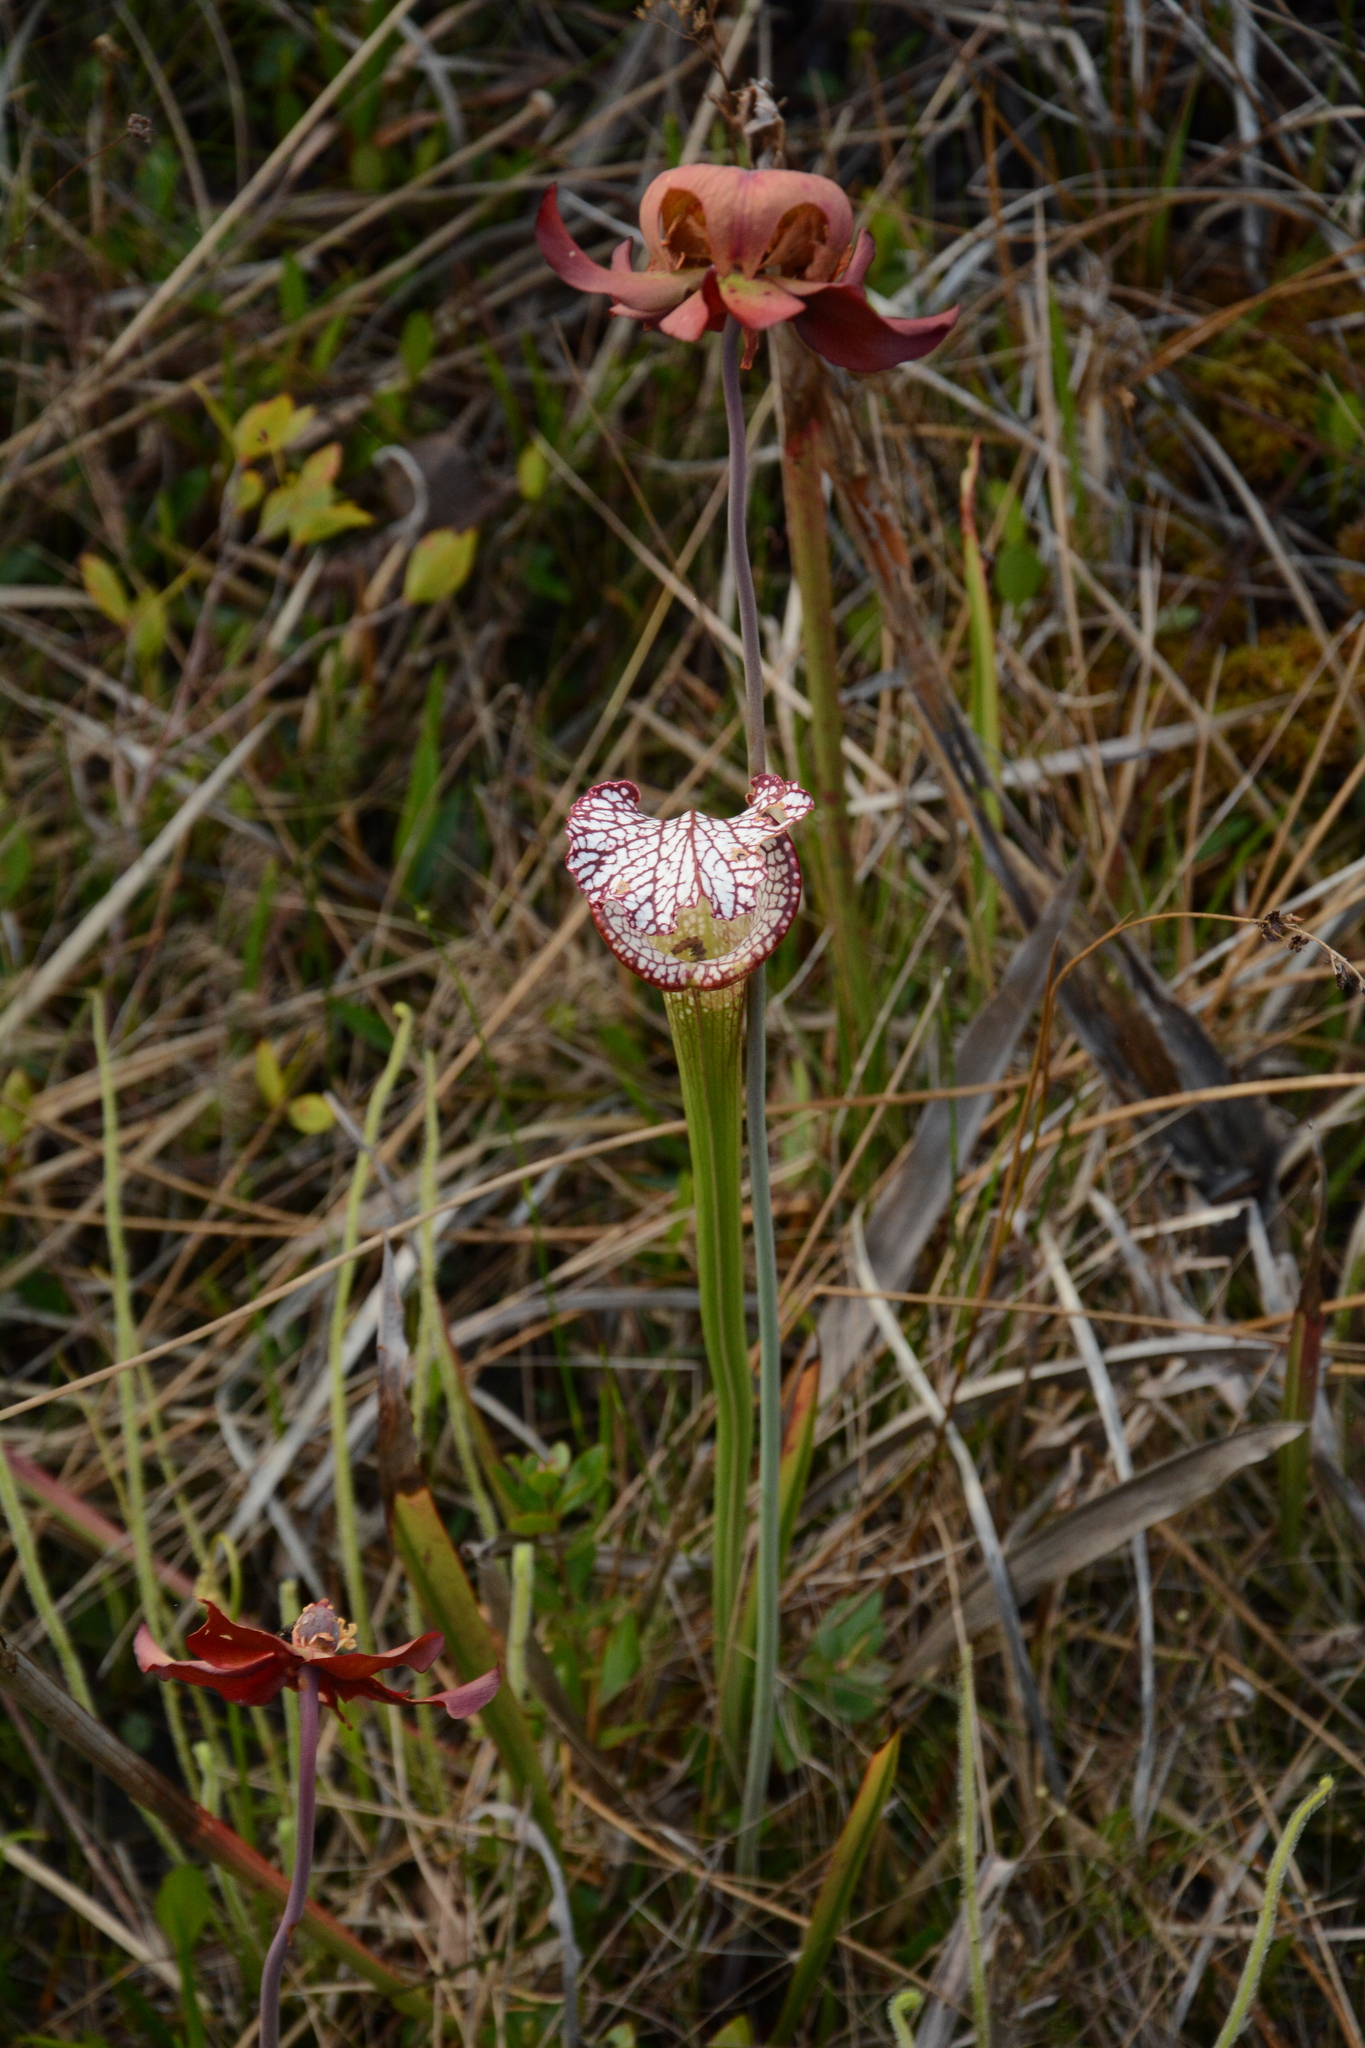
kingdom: Plantae
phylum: Tracheophyta
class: Magnoliopsida
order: Ericales
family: Sarraceniaceae
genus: Sarracenia
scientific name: Sarracenia leucophylla
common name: Purple trumpetleaf
